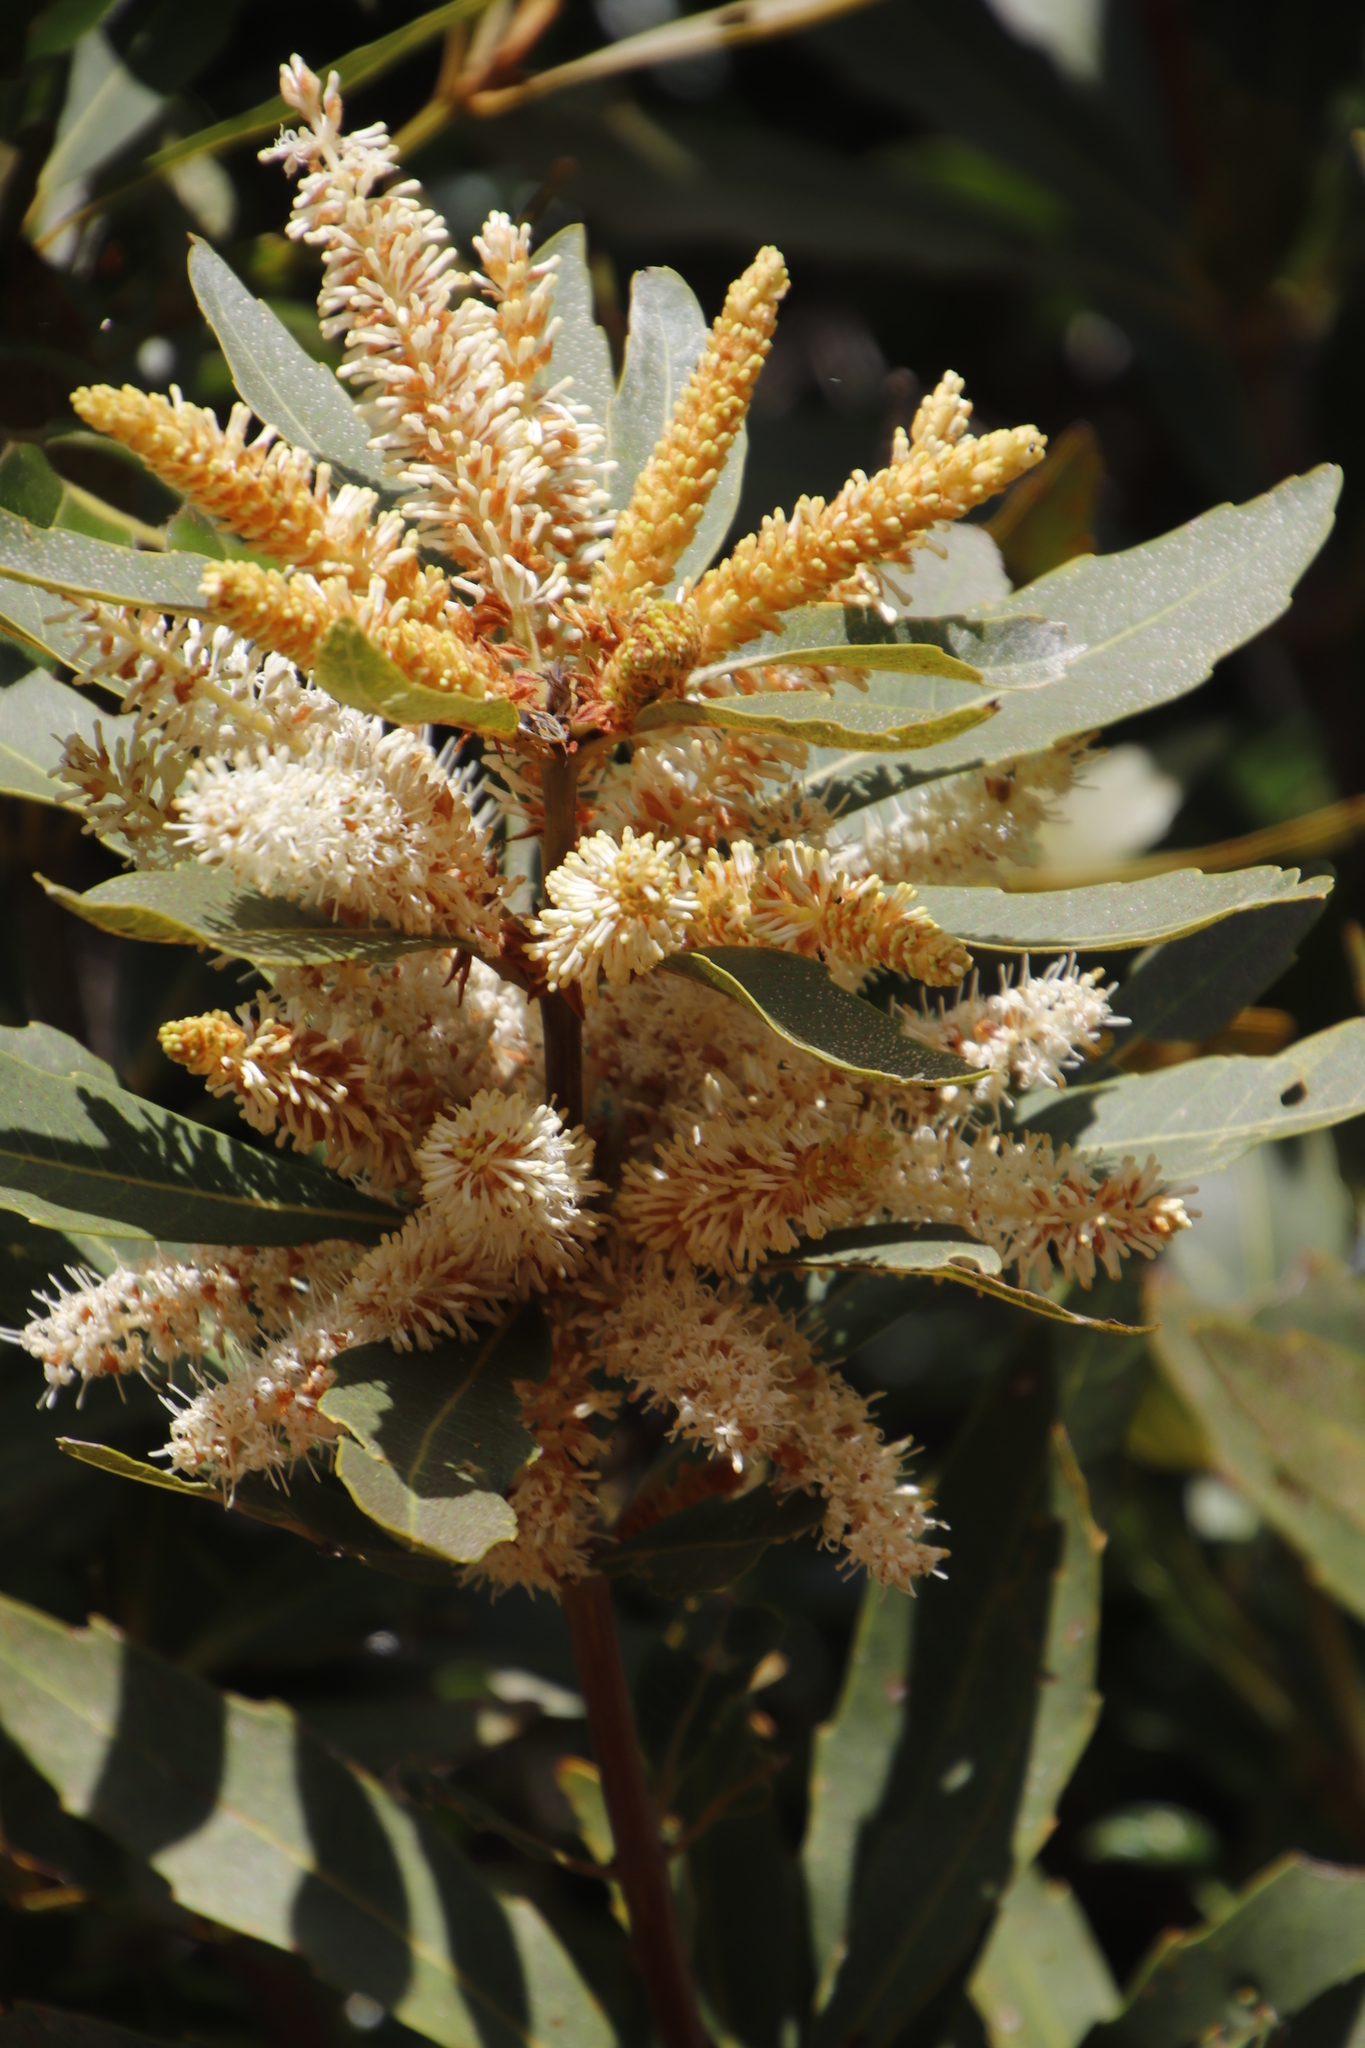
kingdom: Plantae
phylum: Tracheophyta
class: Magnoliopsida
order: Proteales
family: Proteaceae
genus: Brabejum
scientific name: Brabejum stellatifolium
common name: Wild almond
